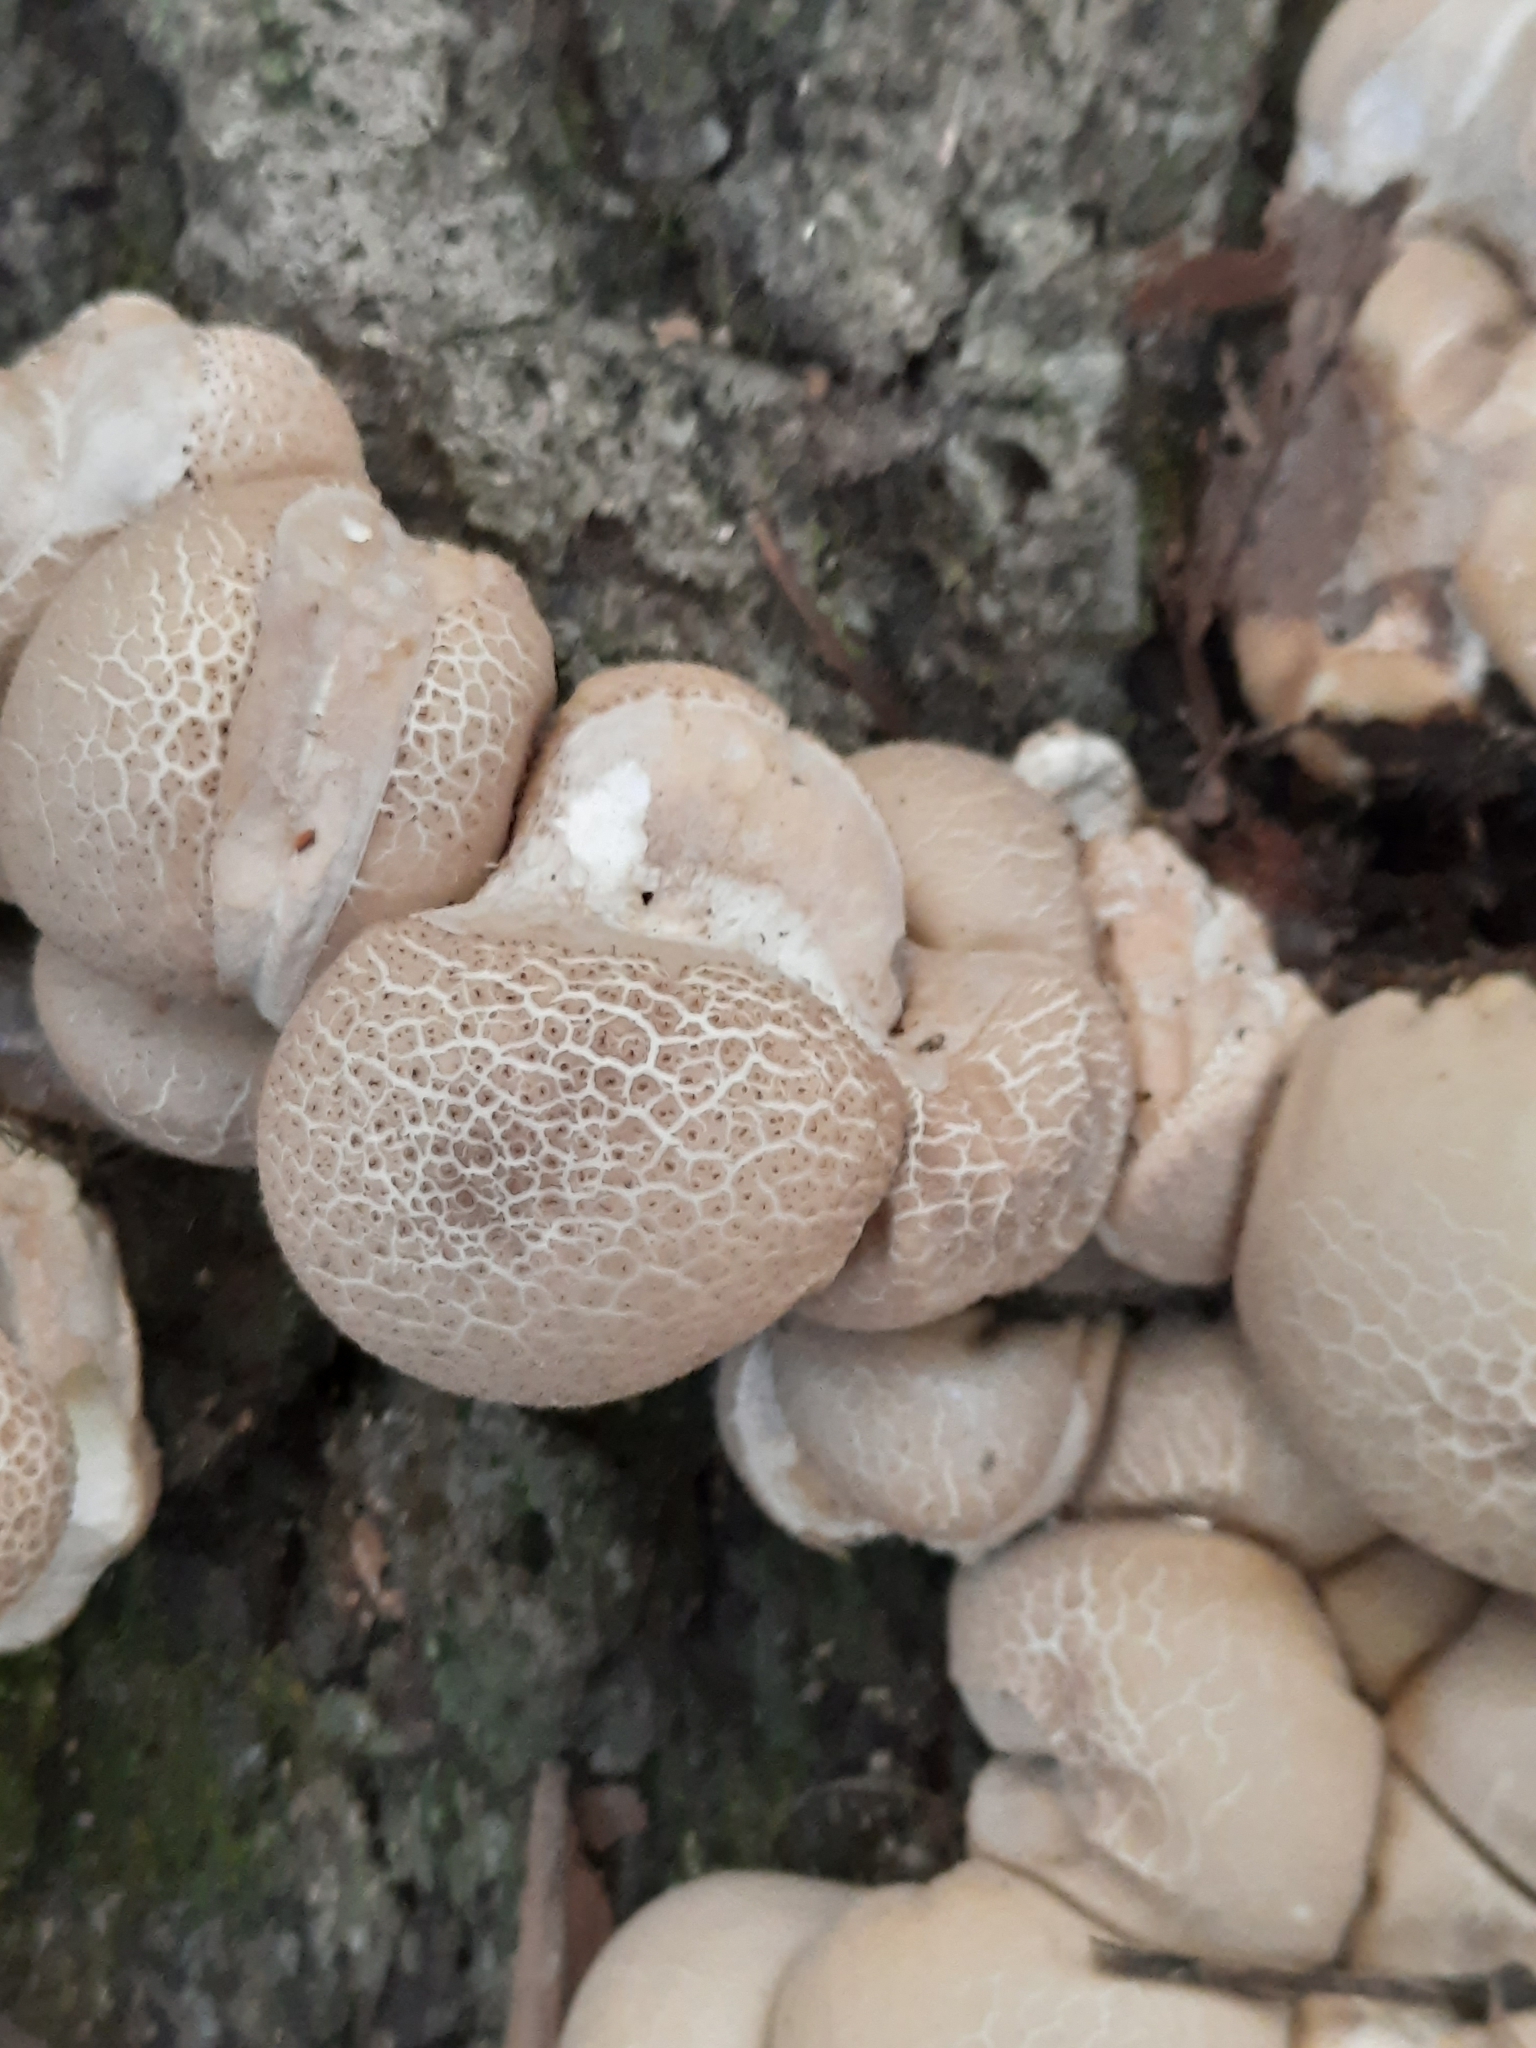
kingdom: Fungi
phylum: Basidiomycota
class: Agaricomycetes
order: Agaricales
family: Lycoperdaceae
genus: Apioperdon
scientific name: Apioperdon pyriforme
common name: Pear-shaped puffball
